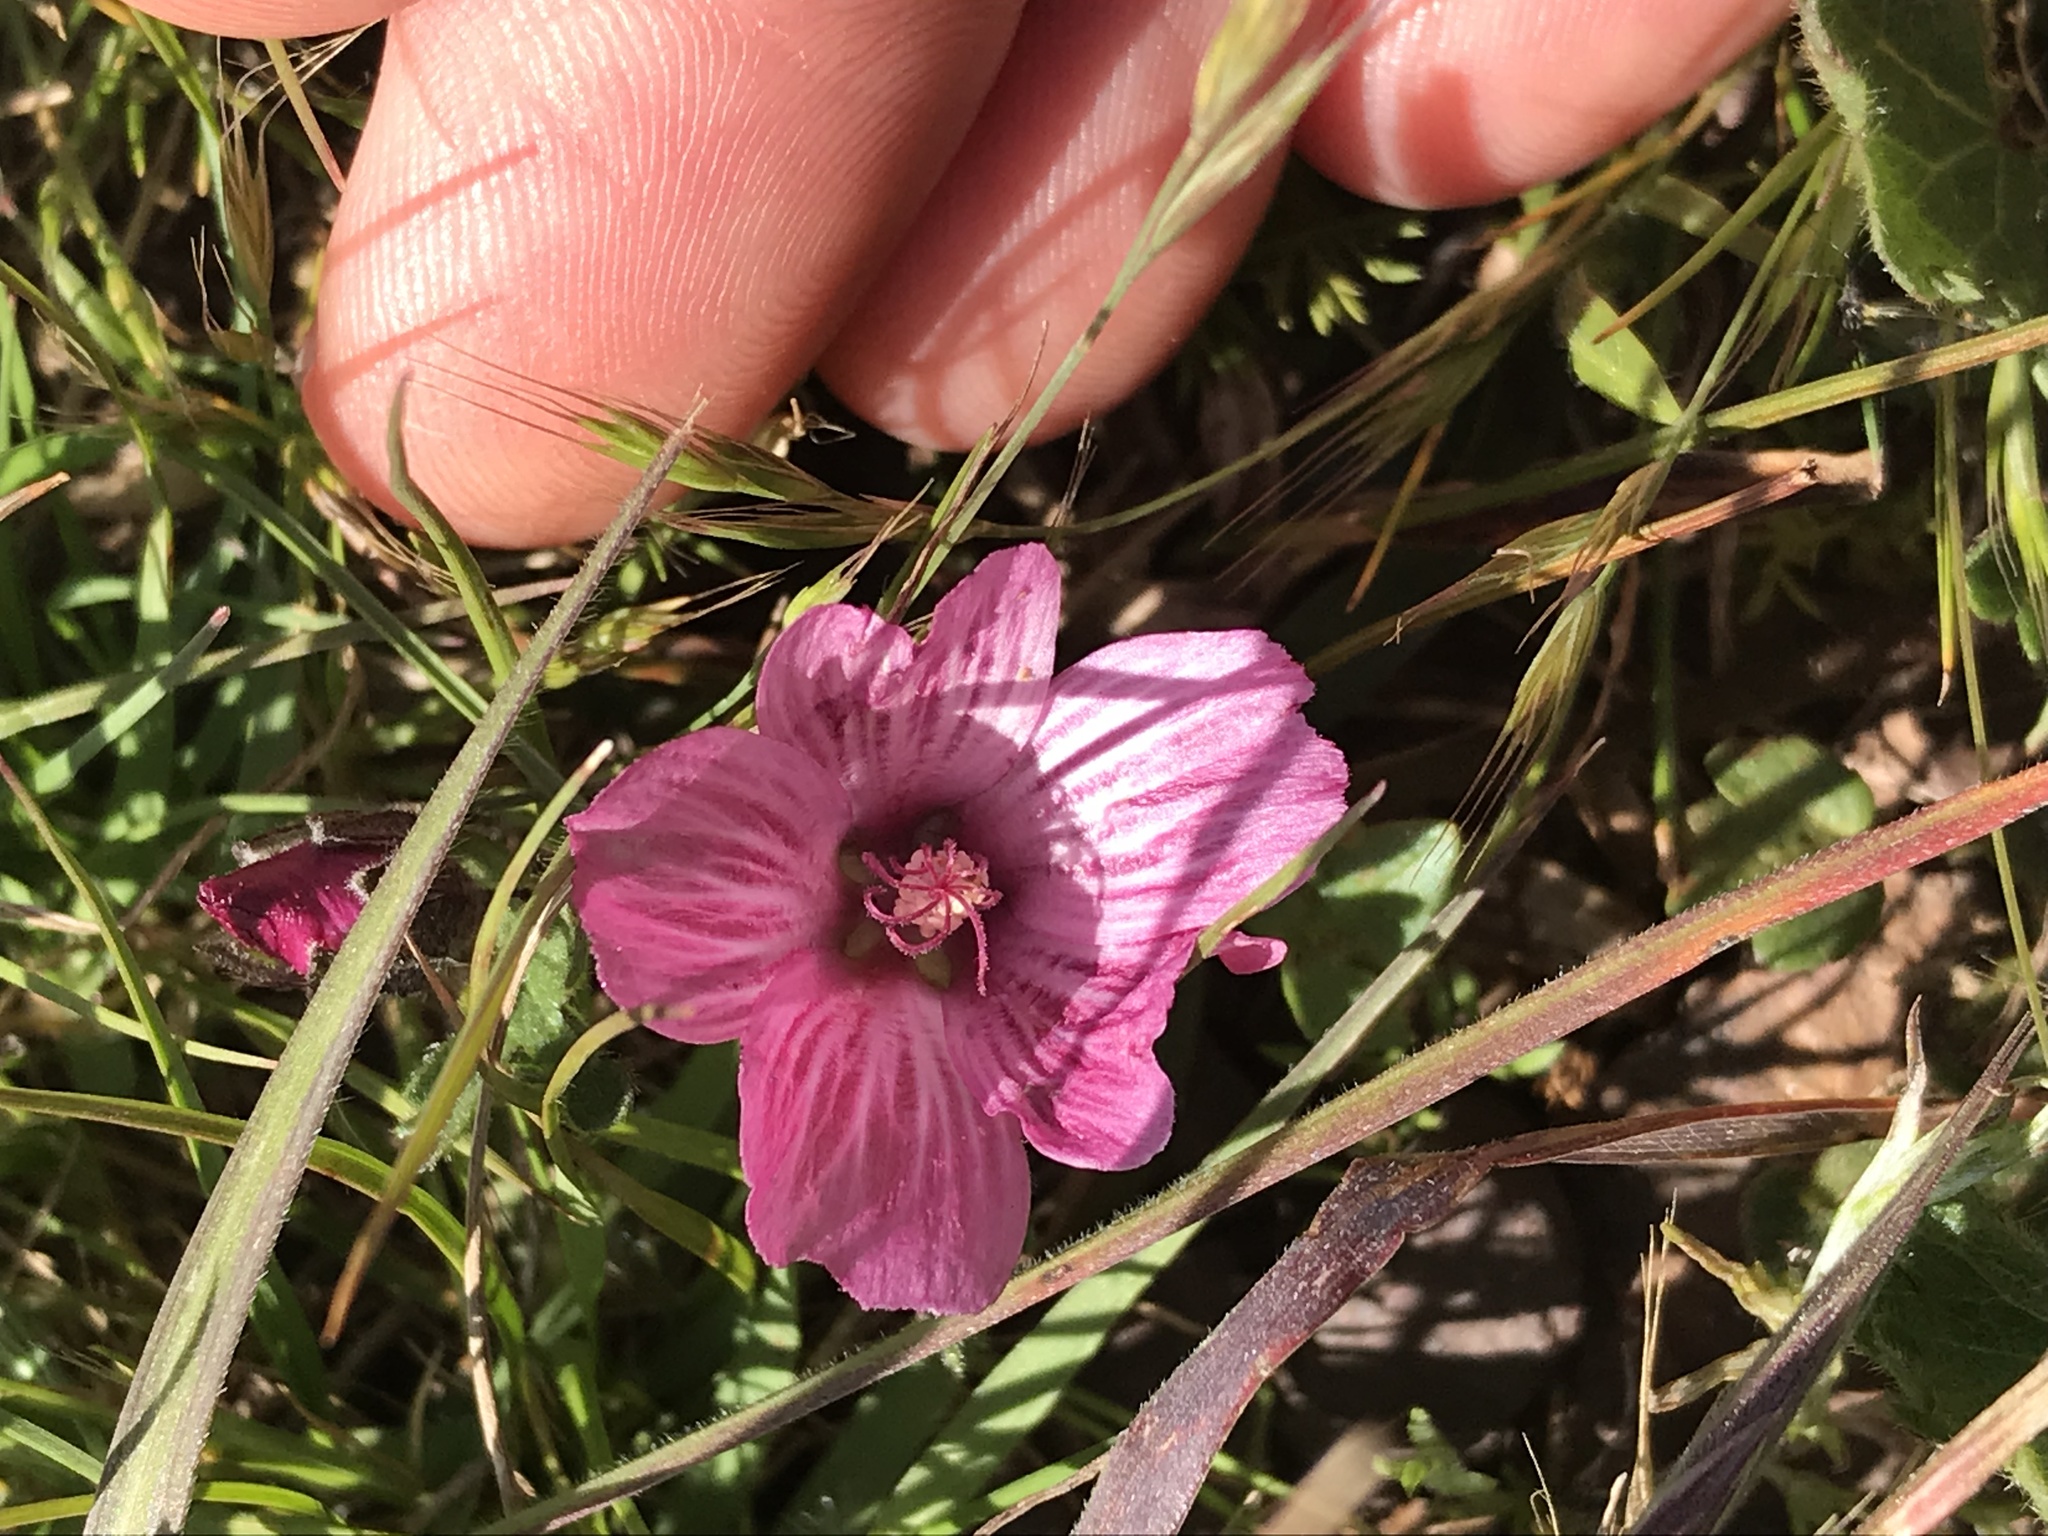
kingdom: Plantae
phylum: Tracheophyta
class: Magnoliopsida
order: Malvales
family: Malvaceae
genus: Sidalcea
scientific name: Sidalcea malviflora
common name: Greek mallow
